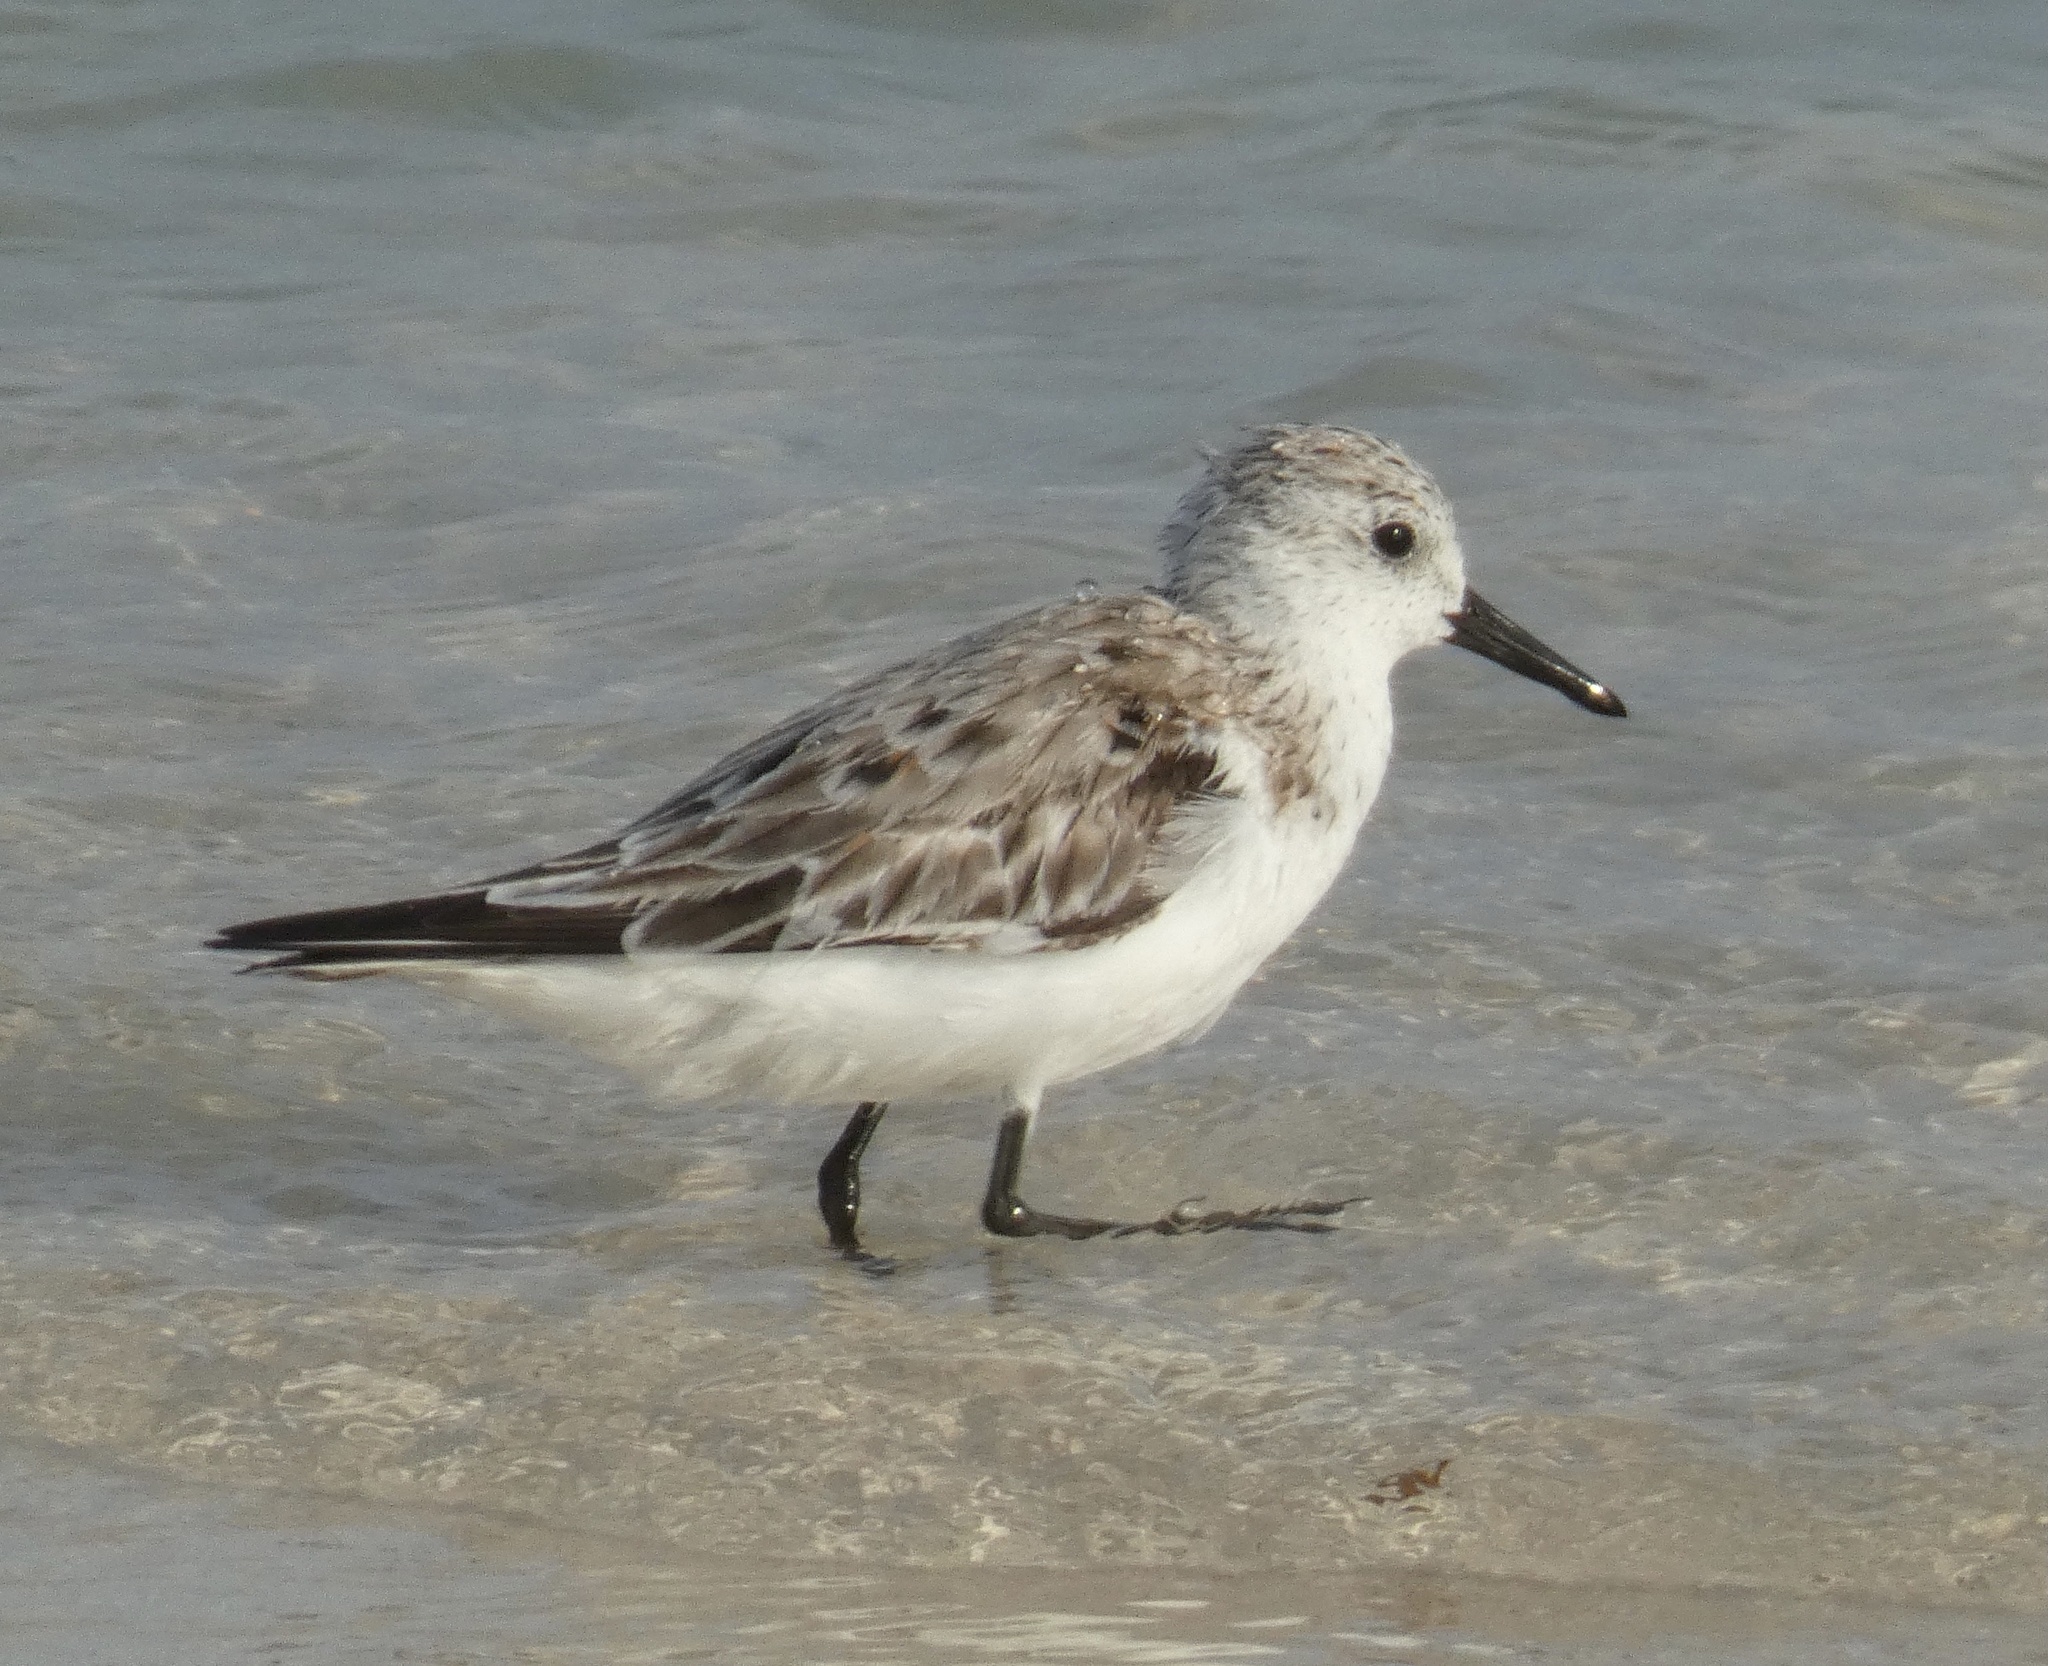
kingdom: Animalia
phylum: Chordata
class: Aves
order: Charadriiformes
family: Scolopacidae
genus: Calidris
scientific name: Calidris alba
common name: Sanderling
